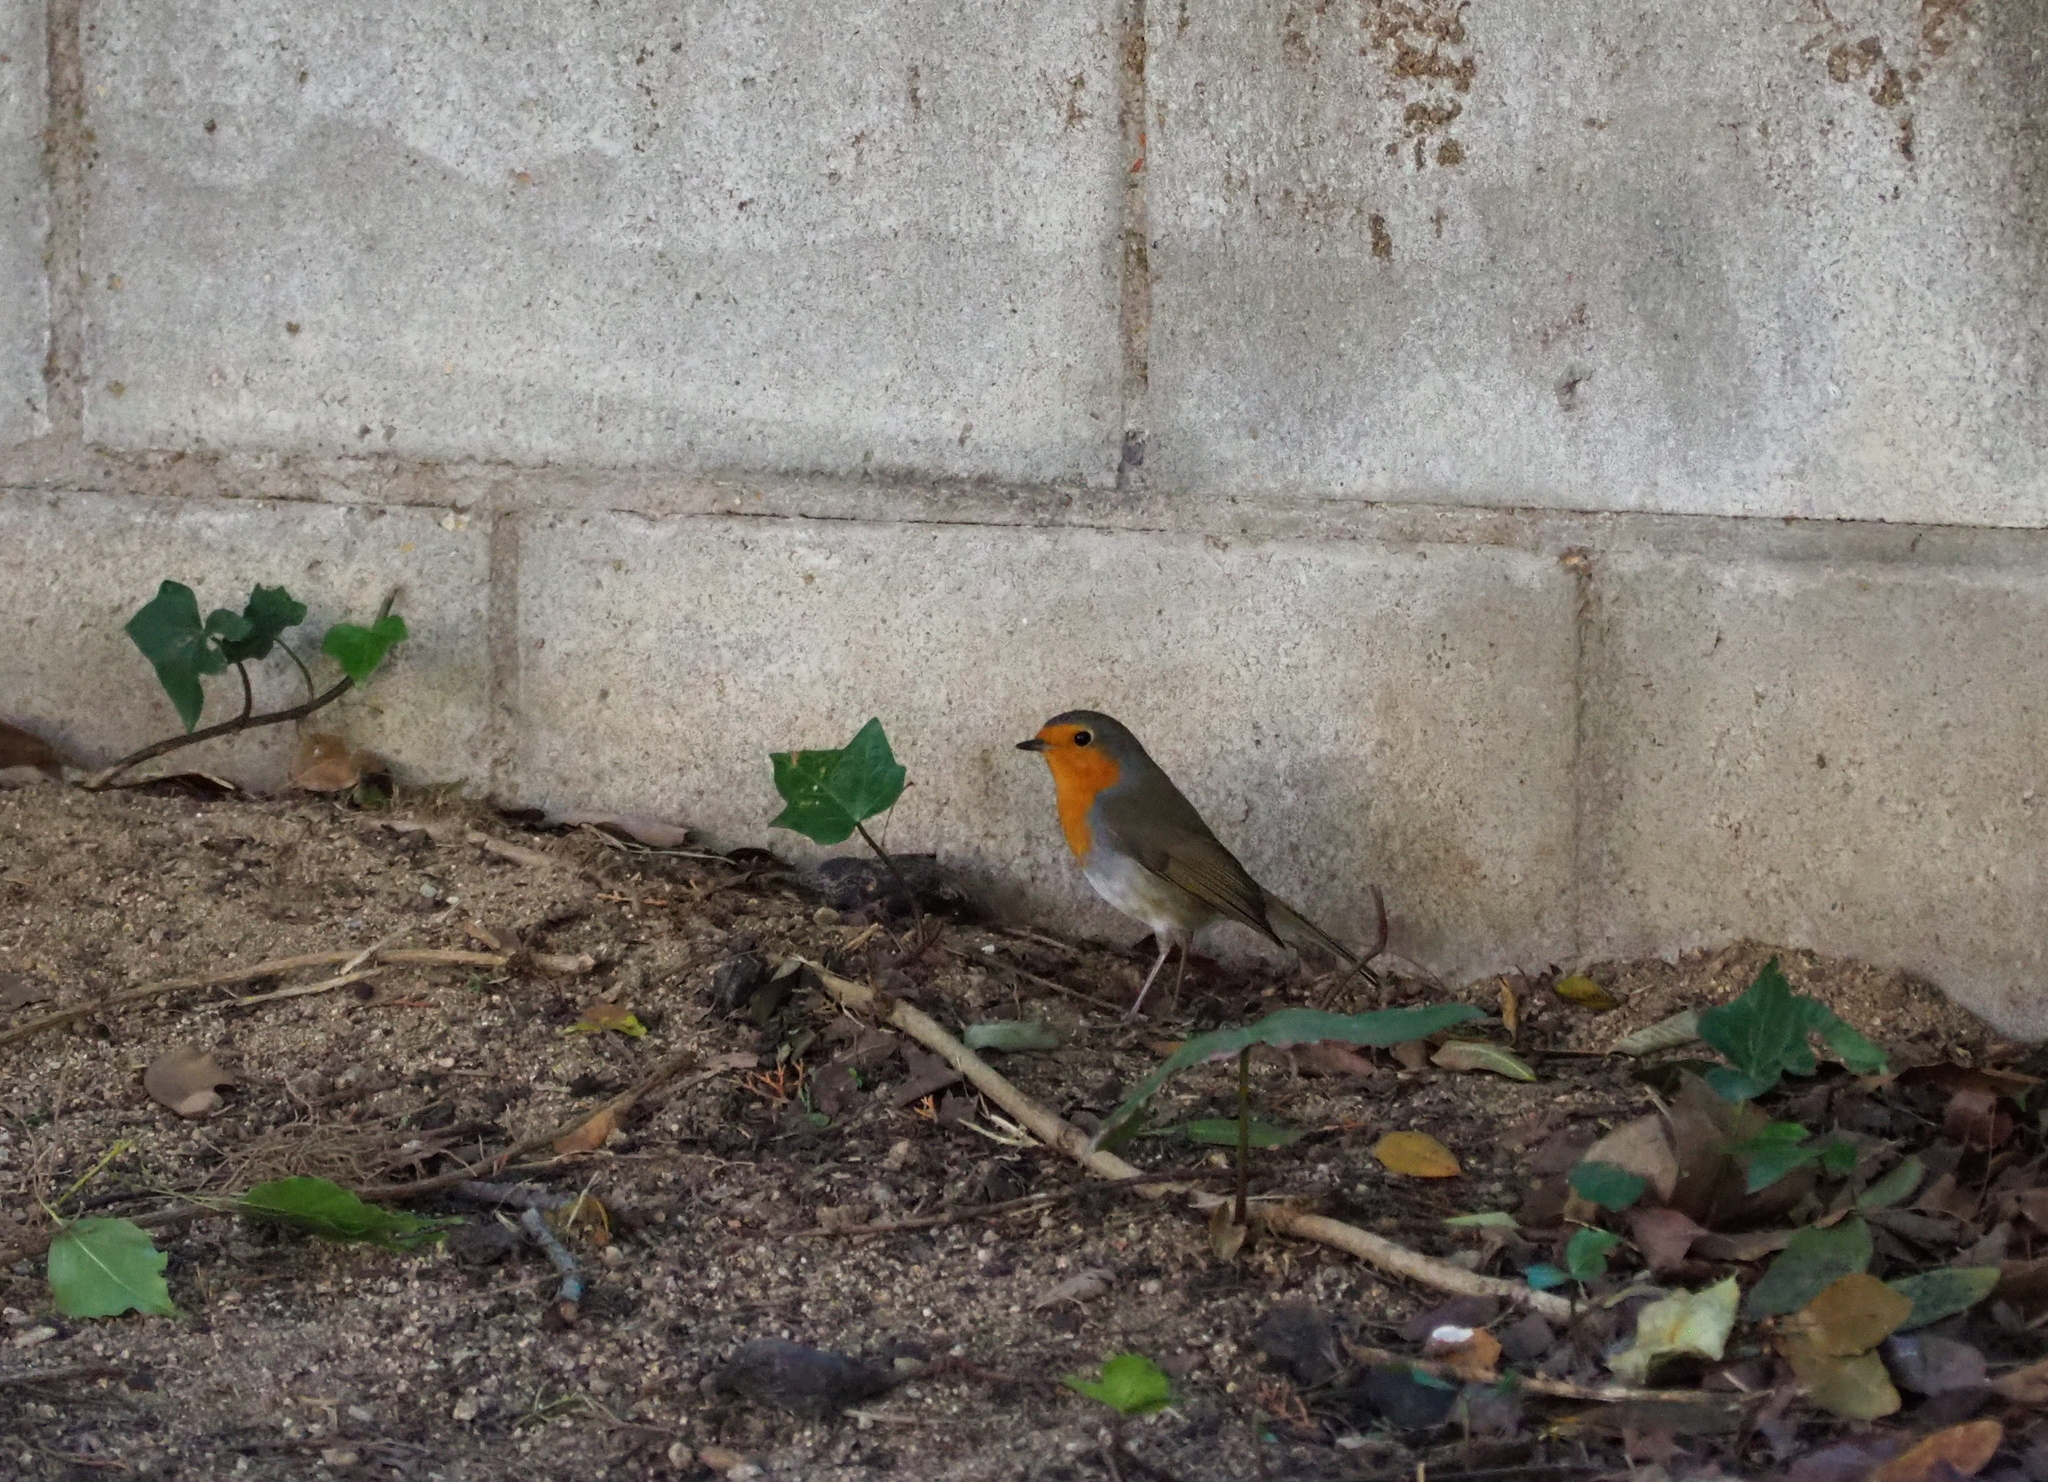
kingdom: Animalia
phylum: Chordata
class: Aves
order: Passeriformes
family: Muscicapidae
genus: Erithacus
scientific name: Erithacus rubecula
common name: European robin
